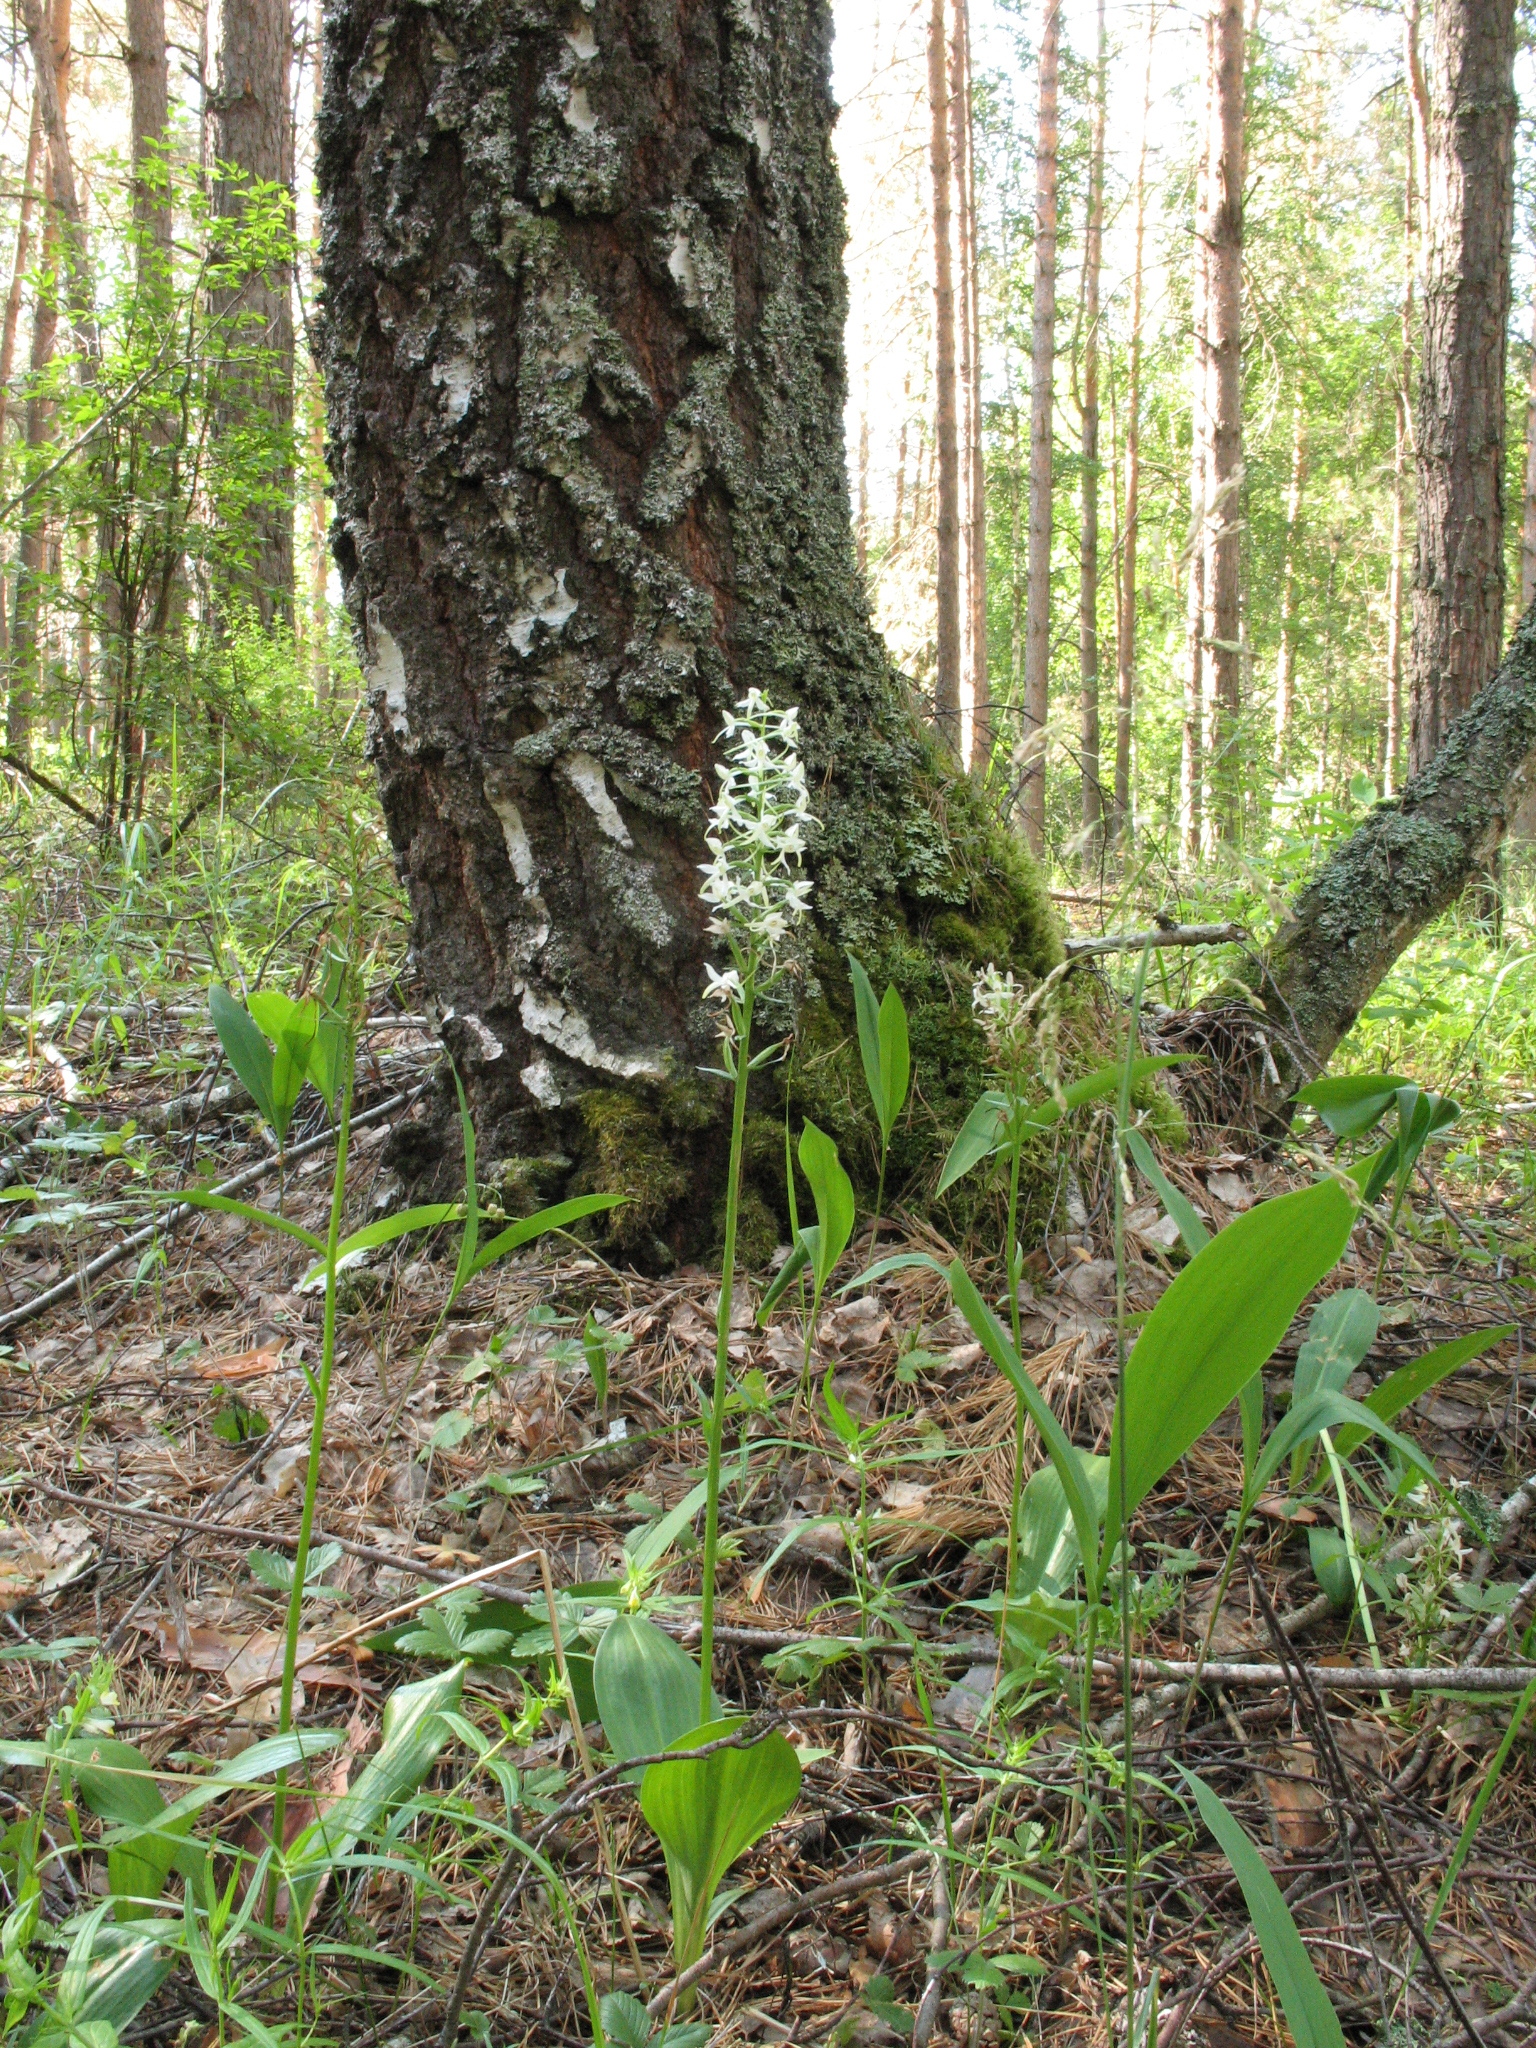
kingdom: Plantae
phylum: Tracheophyta
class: Liliopsida
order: Asparagales
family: Orchidaceae
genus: Platanthera
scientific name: Platanthera bifolia
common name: Lesser butterfly-orchid
